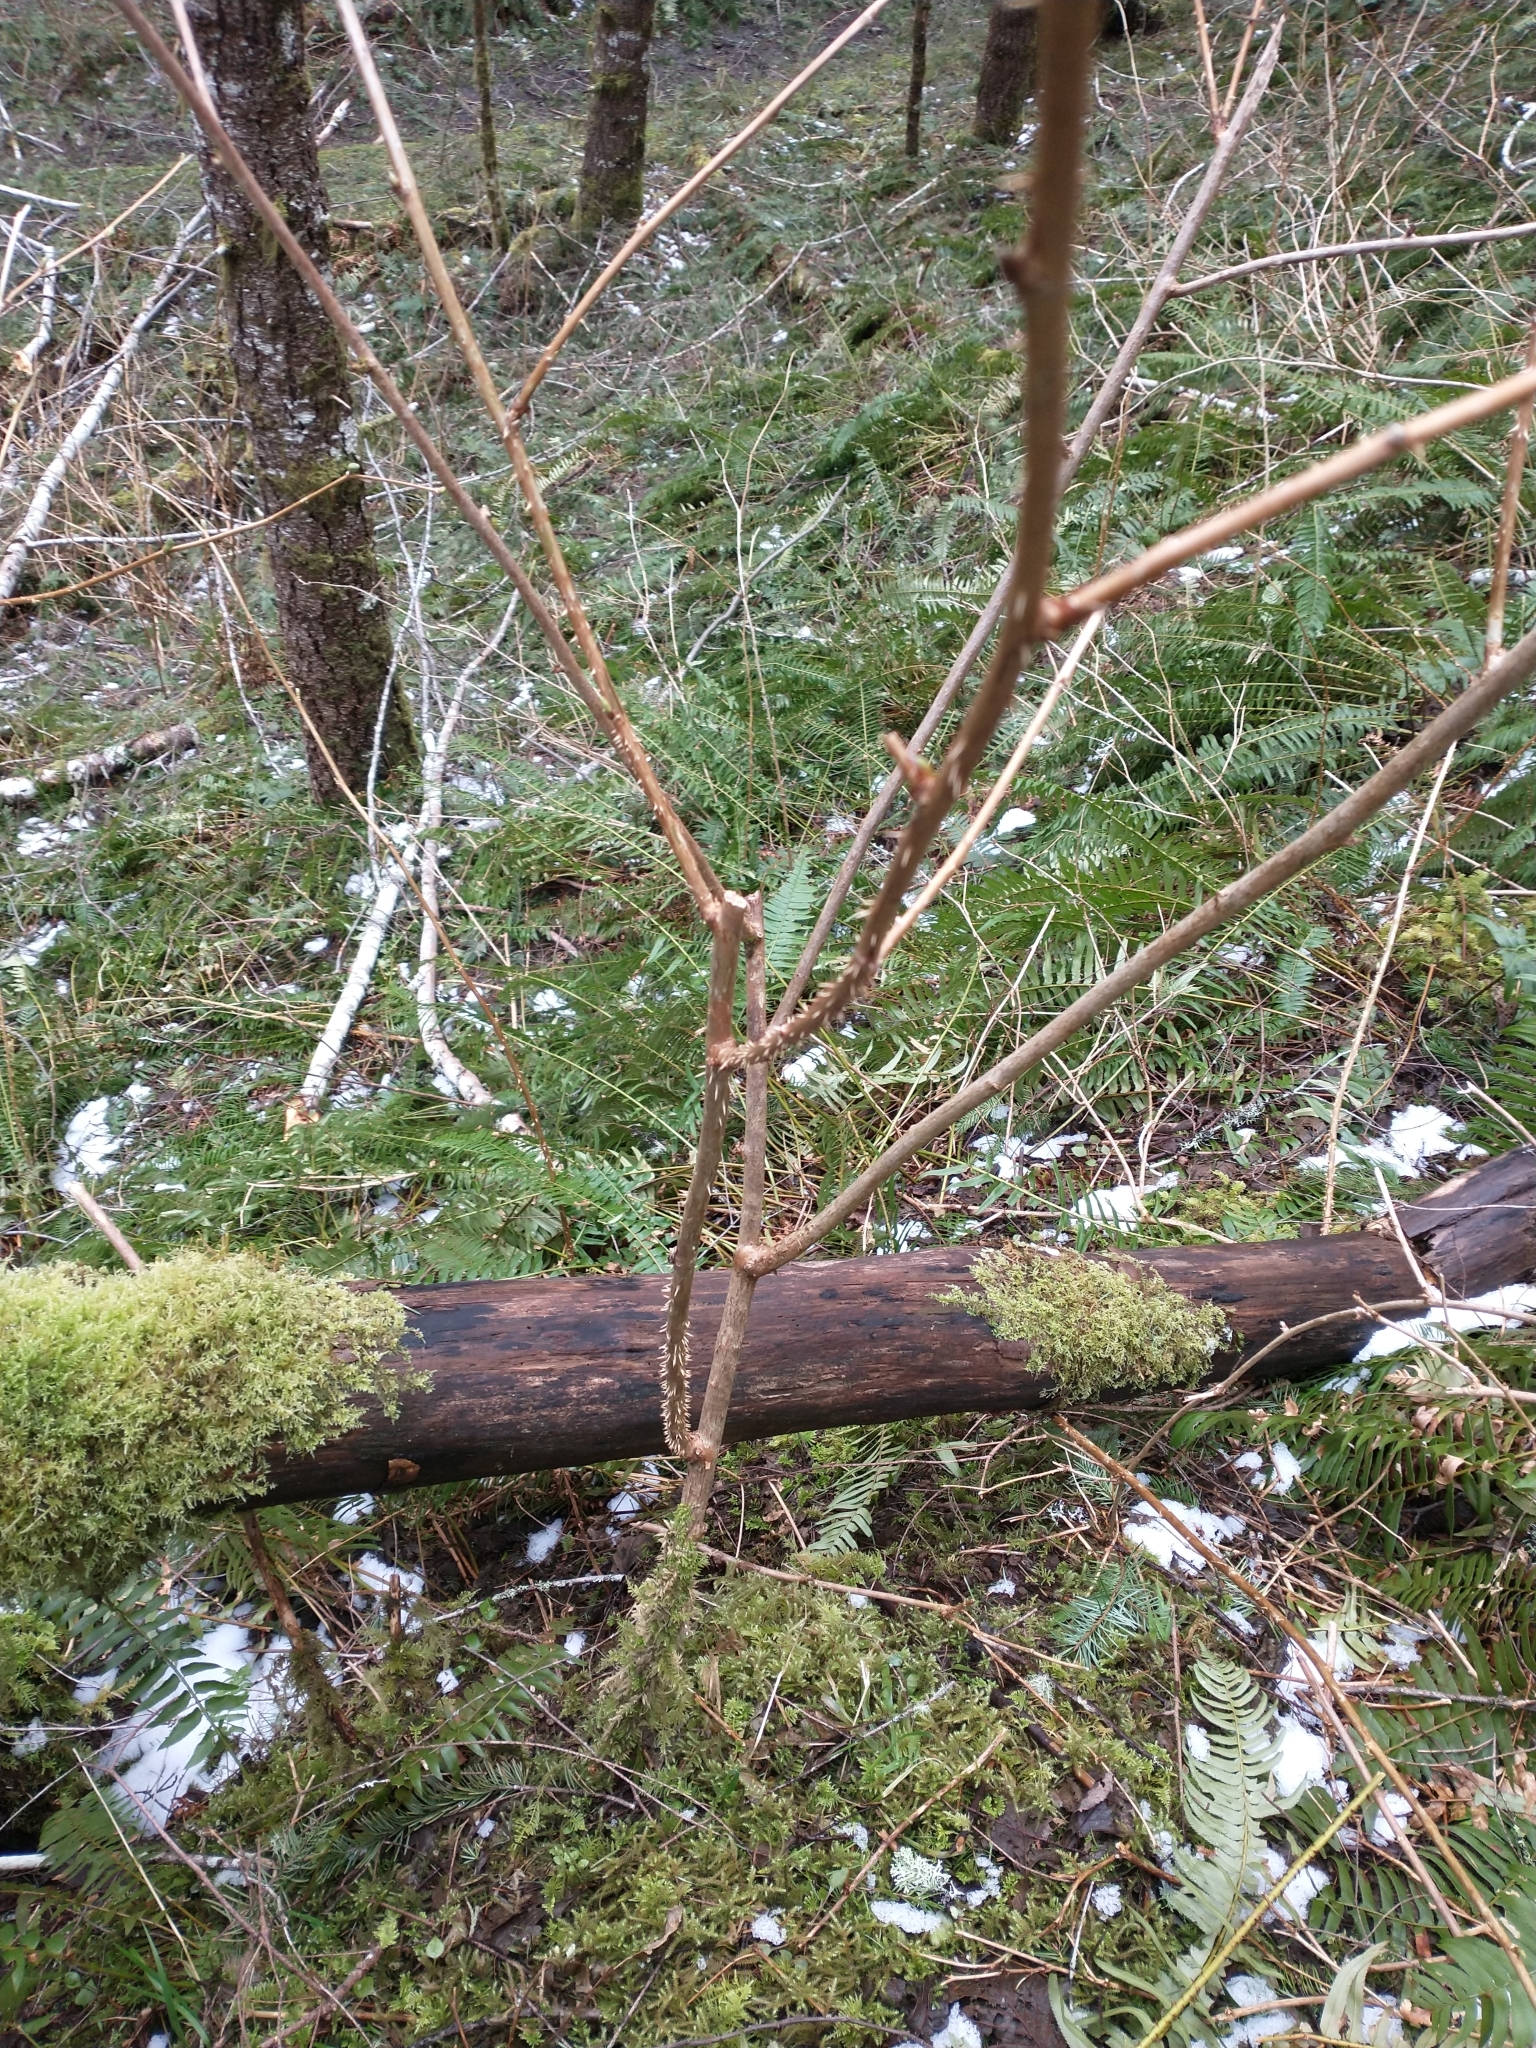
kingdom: Plantae
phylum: Tracheophyta
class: Magnoliopsida
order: Rosales
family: Rosaceae
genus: Rubus
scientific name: Rubus spectabilis
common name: Salmonberry
